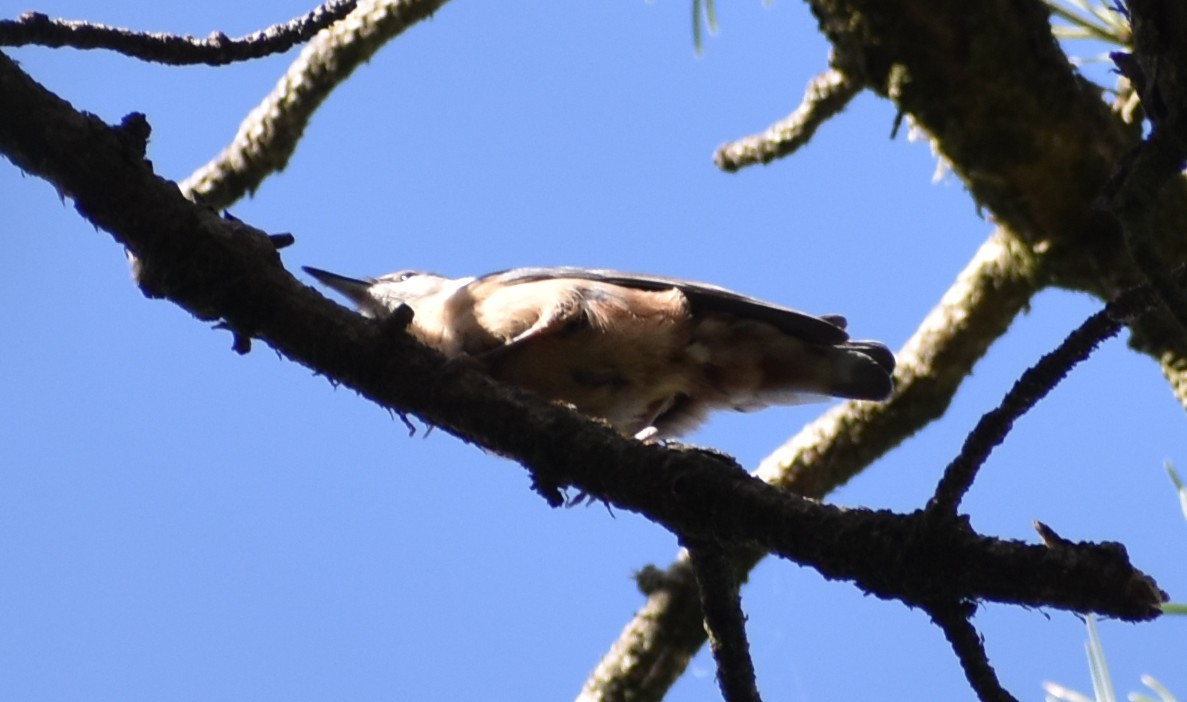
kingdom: Animalia
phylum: Chordata
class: Aves
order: Passeriformes
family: Sittidae
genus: Sitta
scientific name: Sitta europaea
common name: Eurasian nuthatch
